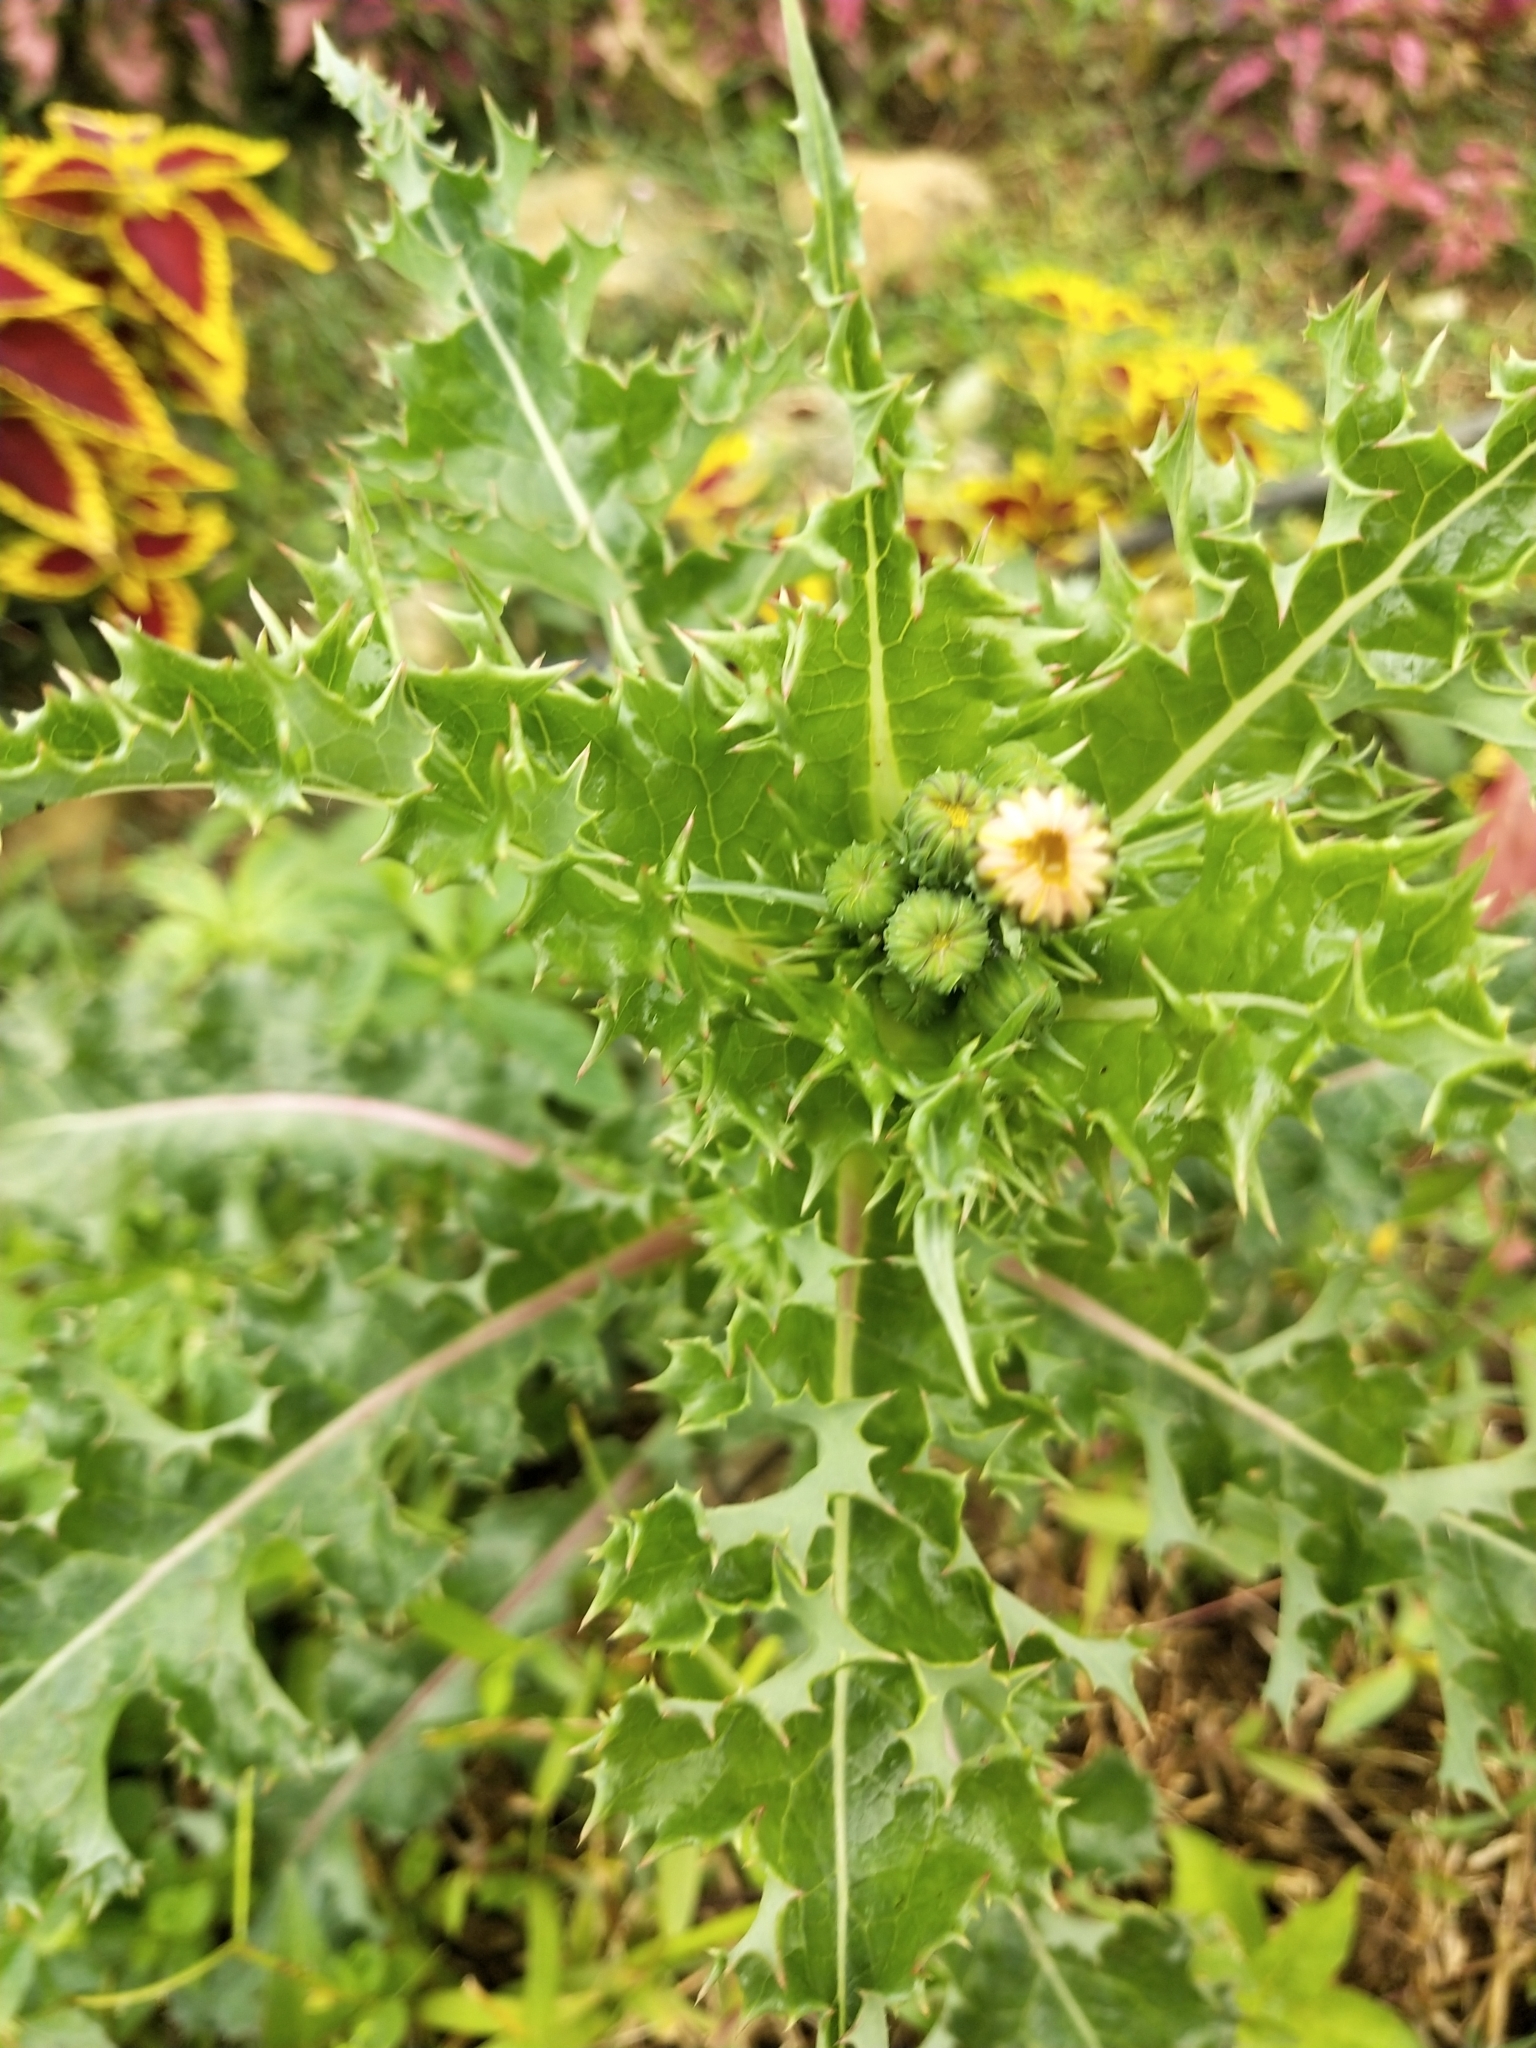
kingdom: Plantae
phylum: Tracheophyta
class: Magnoliopsida
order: Asterales
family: Asteraceae
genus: Sonchus
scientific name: Sonchus asper
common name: Prickly sow-thistle
